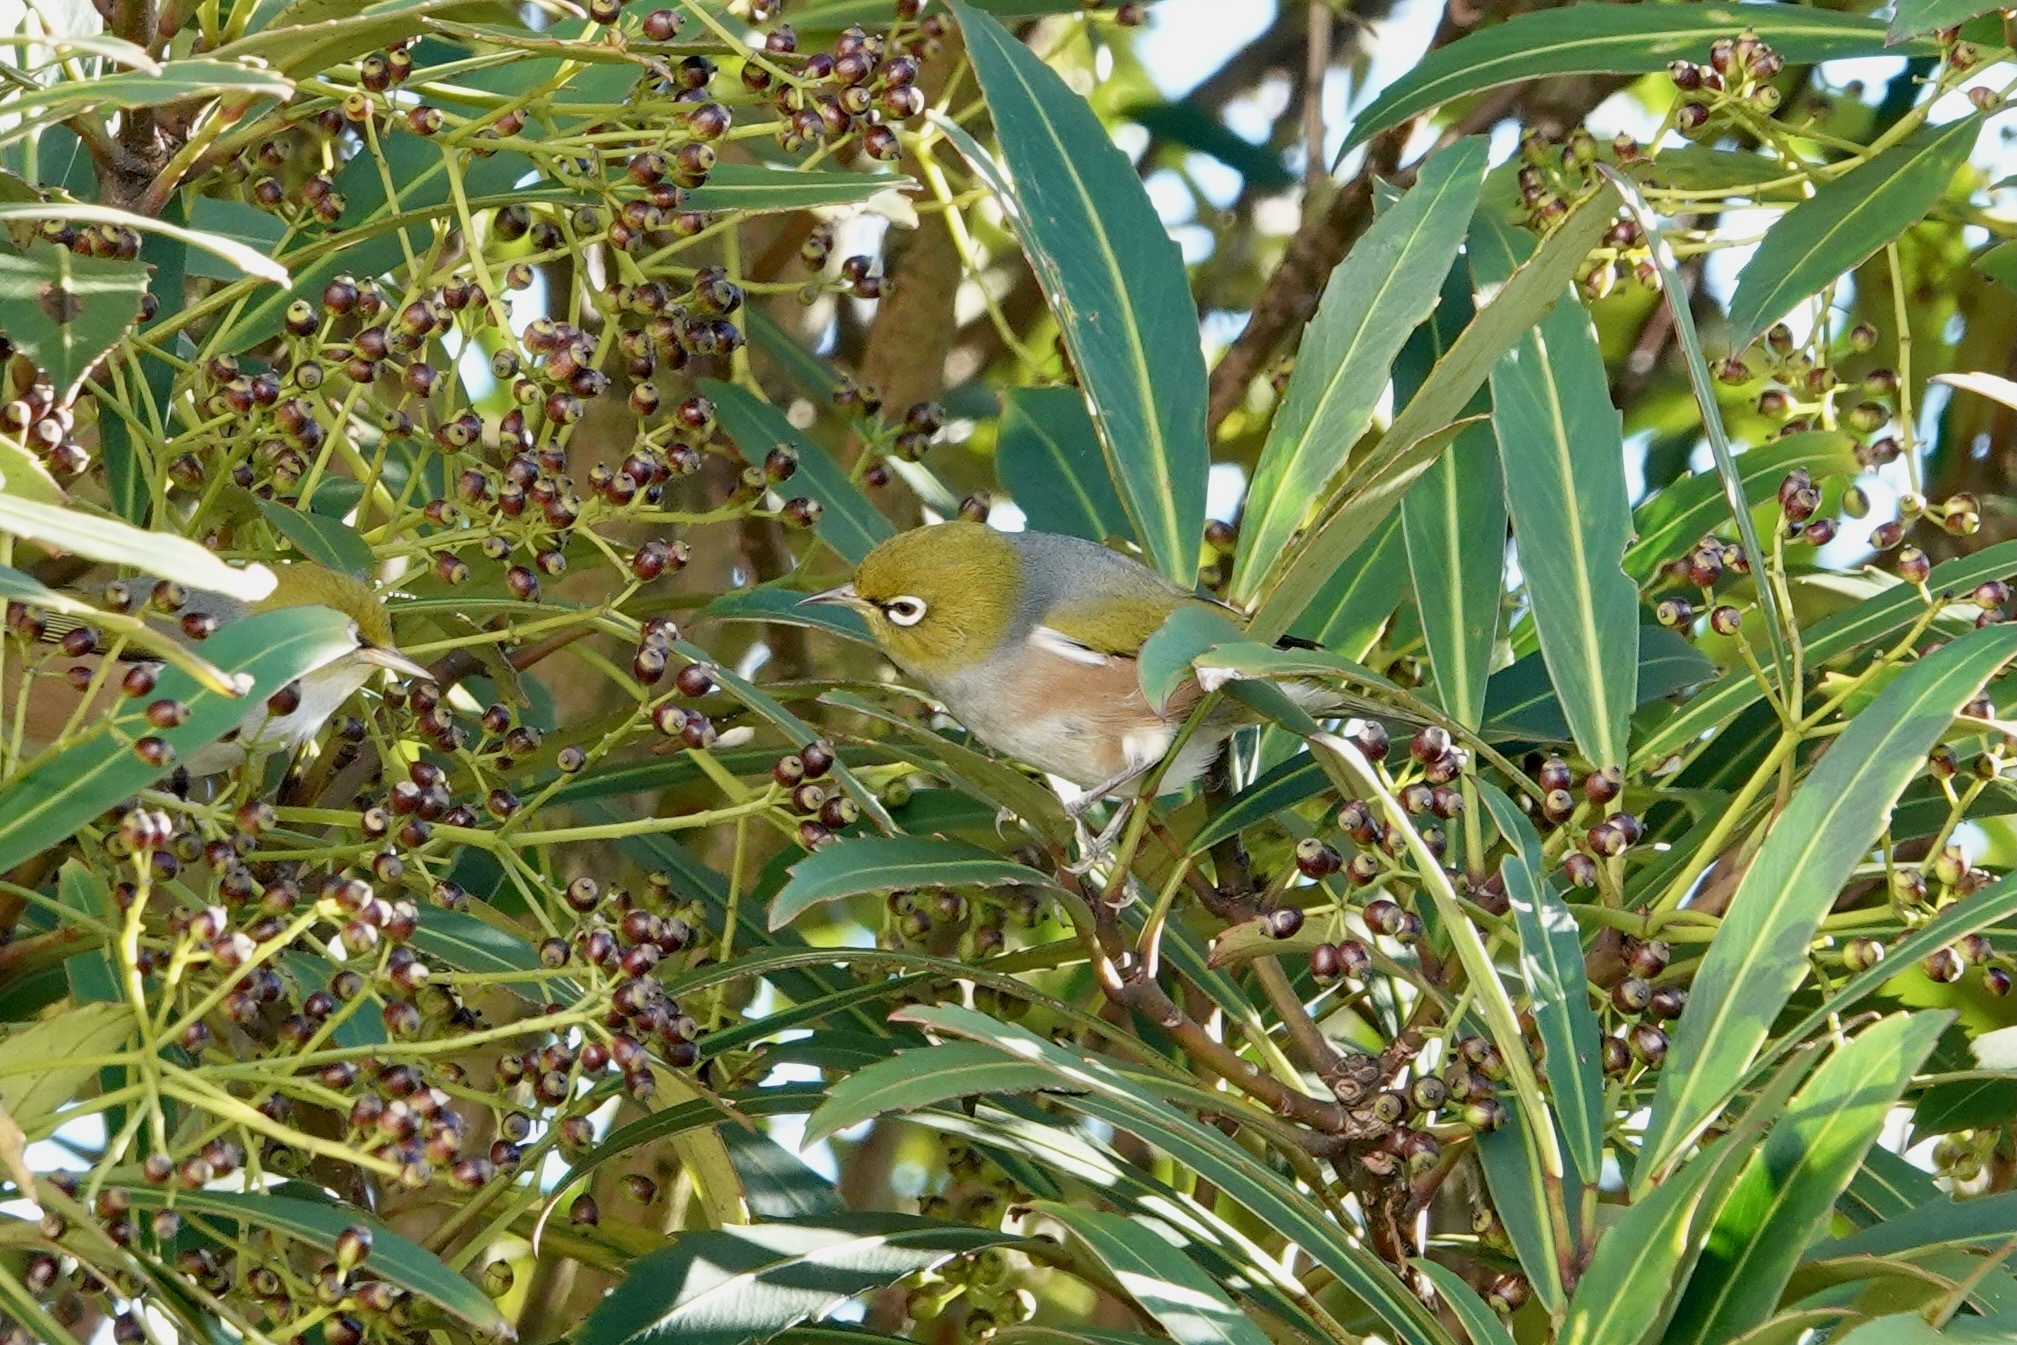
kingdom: Animalia
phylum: Chordata
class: Aves
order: Passeriformes
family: Zosteropidae
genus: Zosterops
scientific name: Zosterops lateralis
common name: Silvereye
